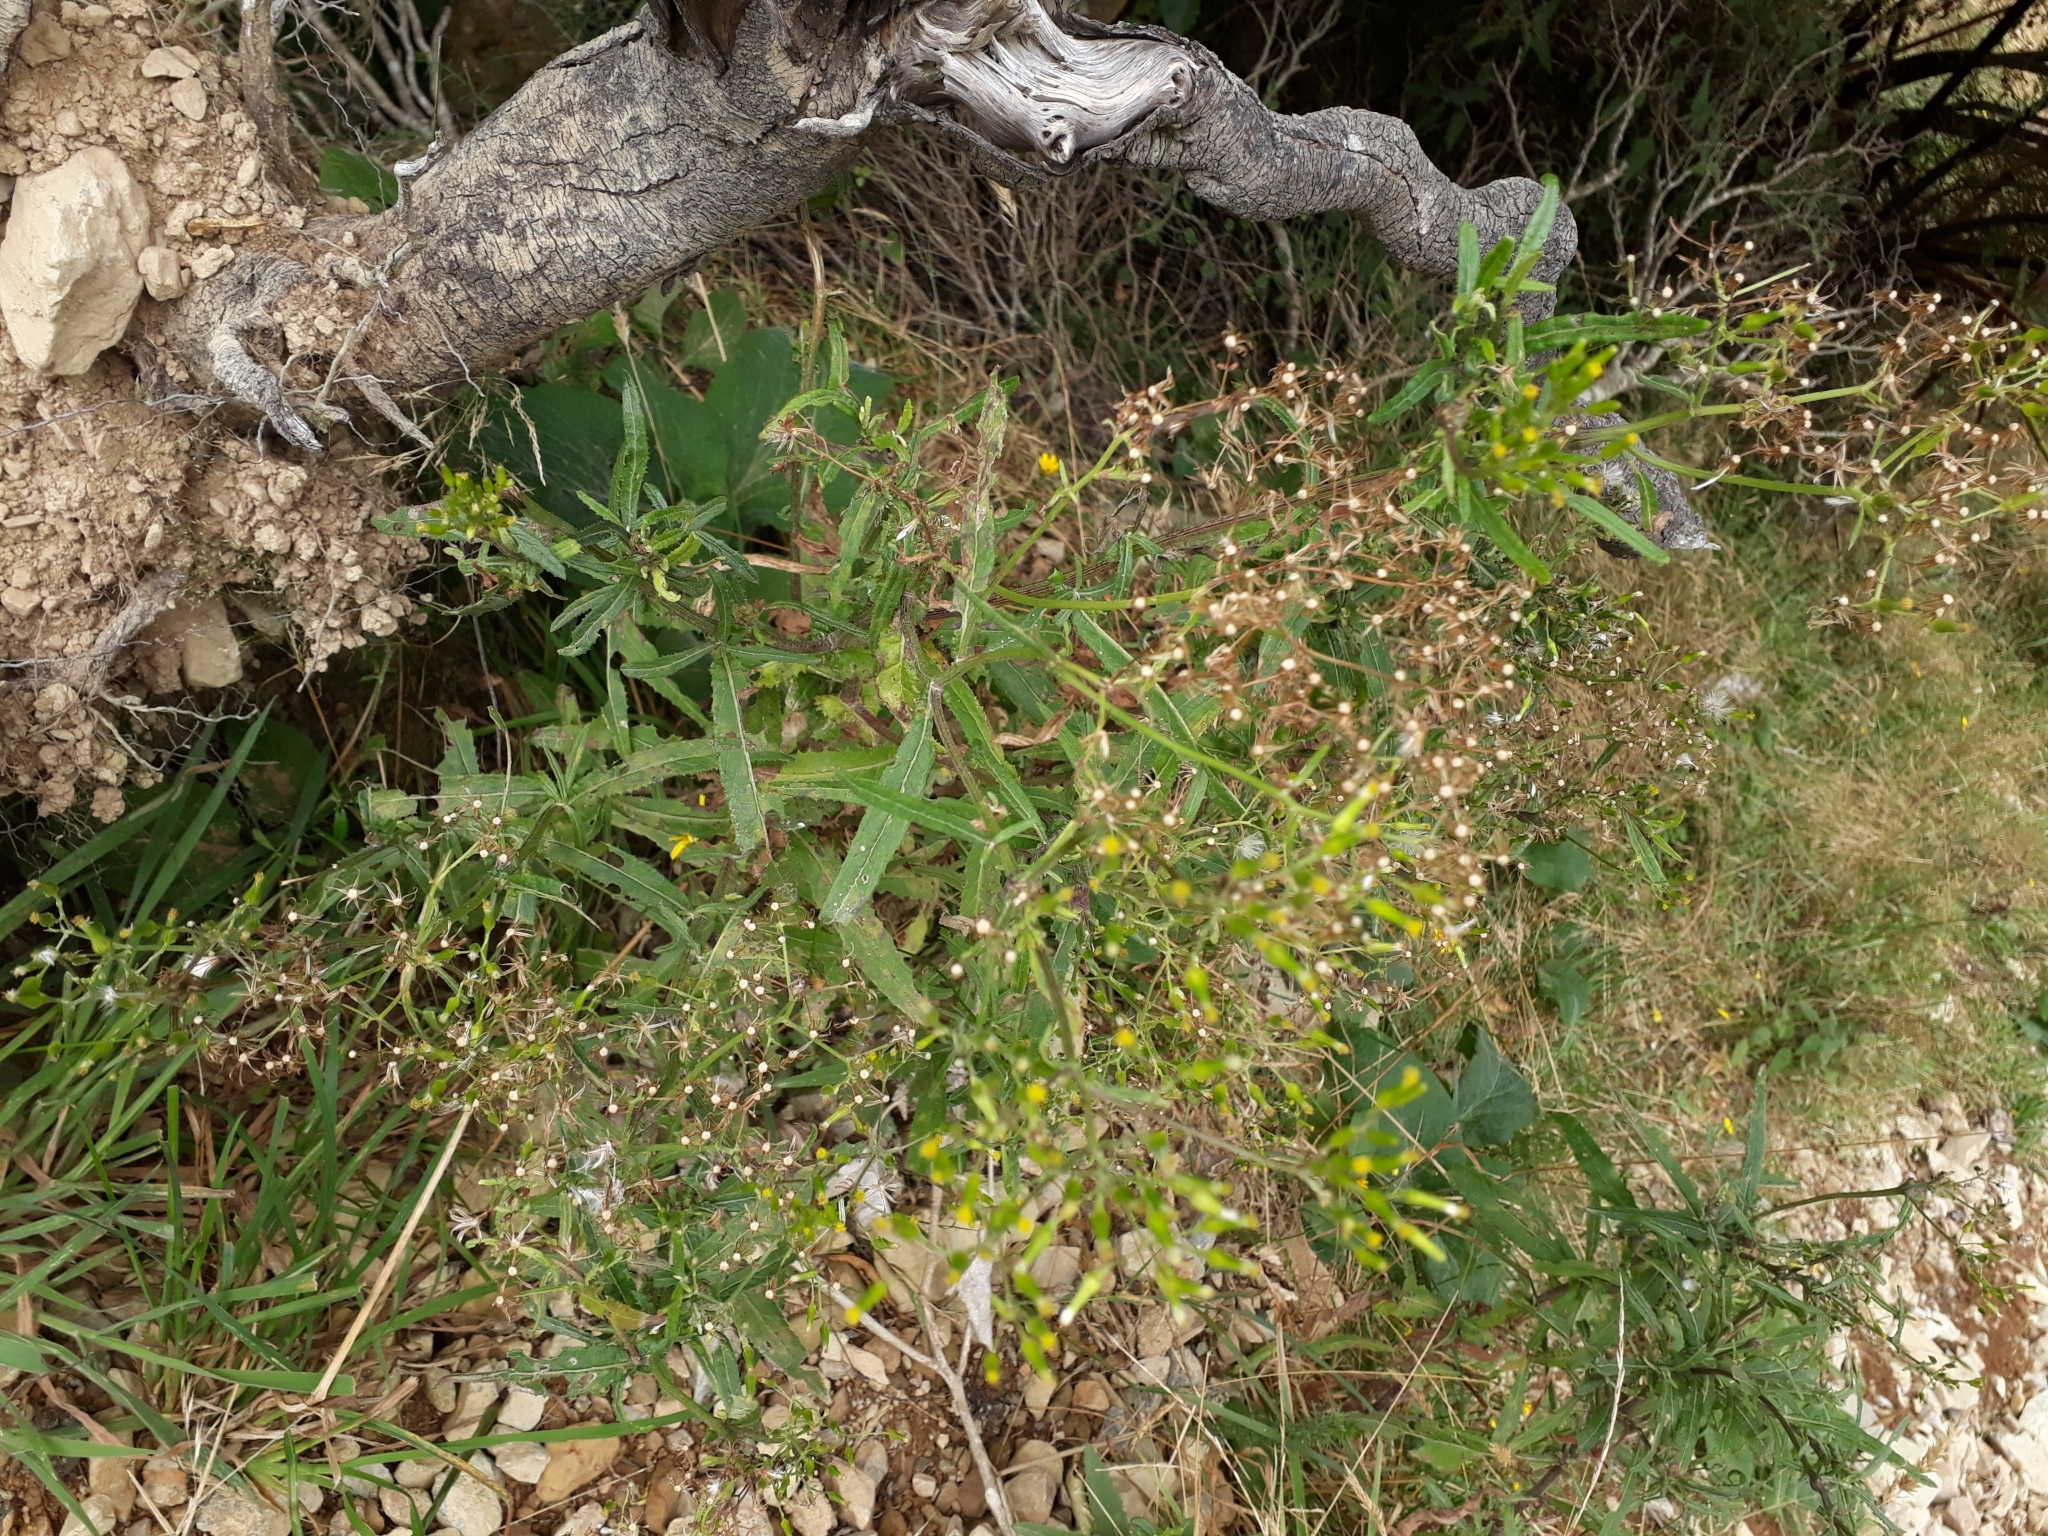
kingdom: Plantae
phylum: Tracheophyta
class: Magnoliopsida
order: Asterales
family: Asteraceae
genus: Senecio
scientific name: Senecio minimus
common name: Toothed fireweed
